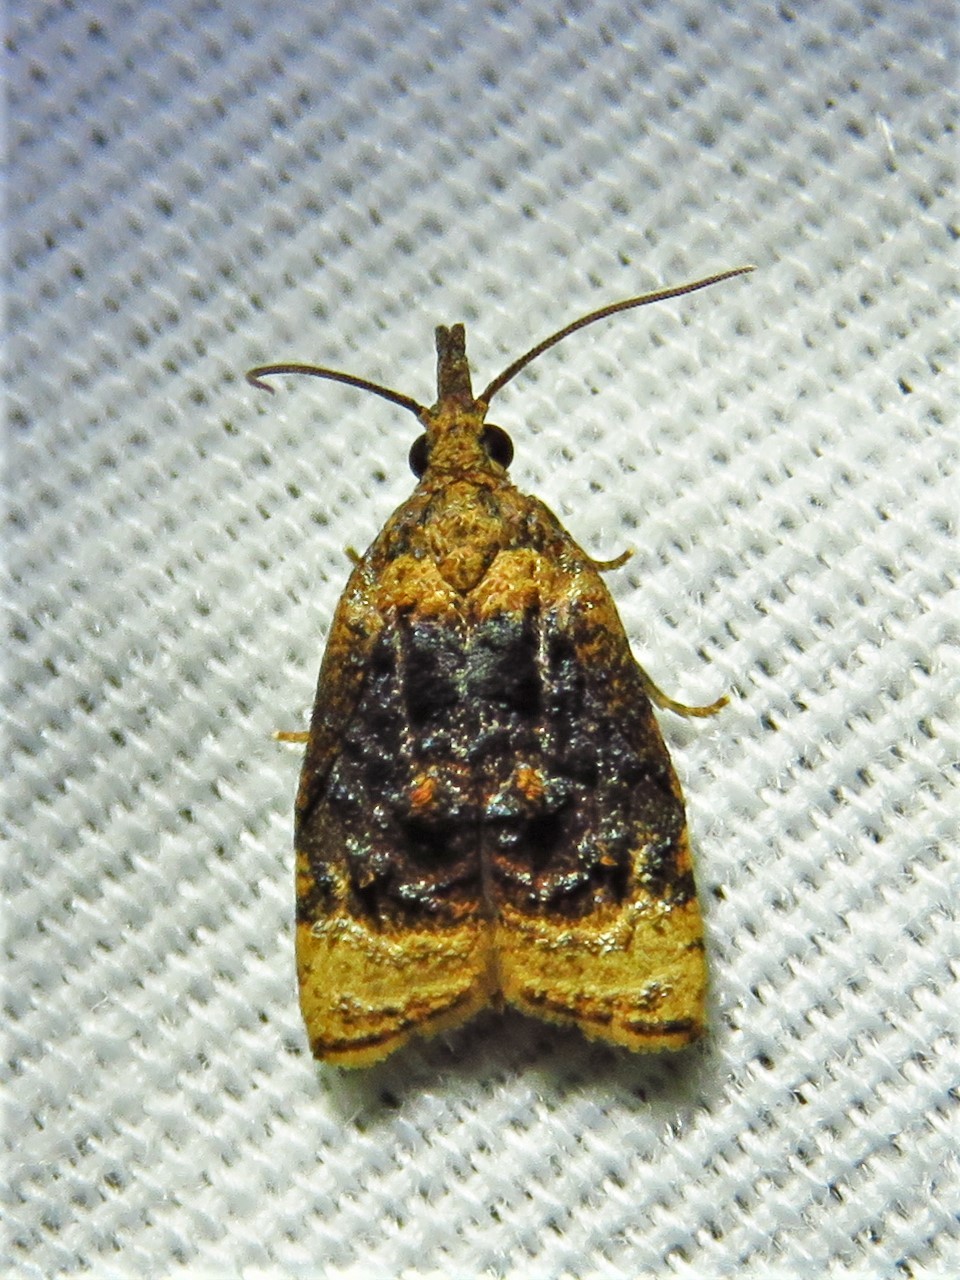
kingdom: Animalia
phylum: Arthropoda
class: Insecta
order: Lepidoptera
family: Tortricidae
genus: Platynota
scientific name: Platynota flavedana
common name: Black-shaded platynota moth
